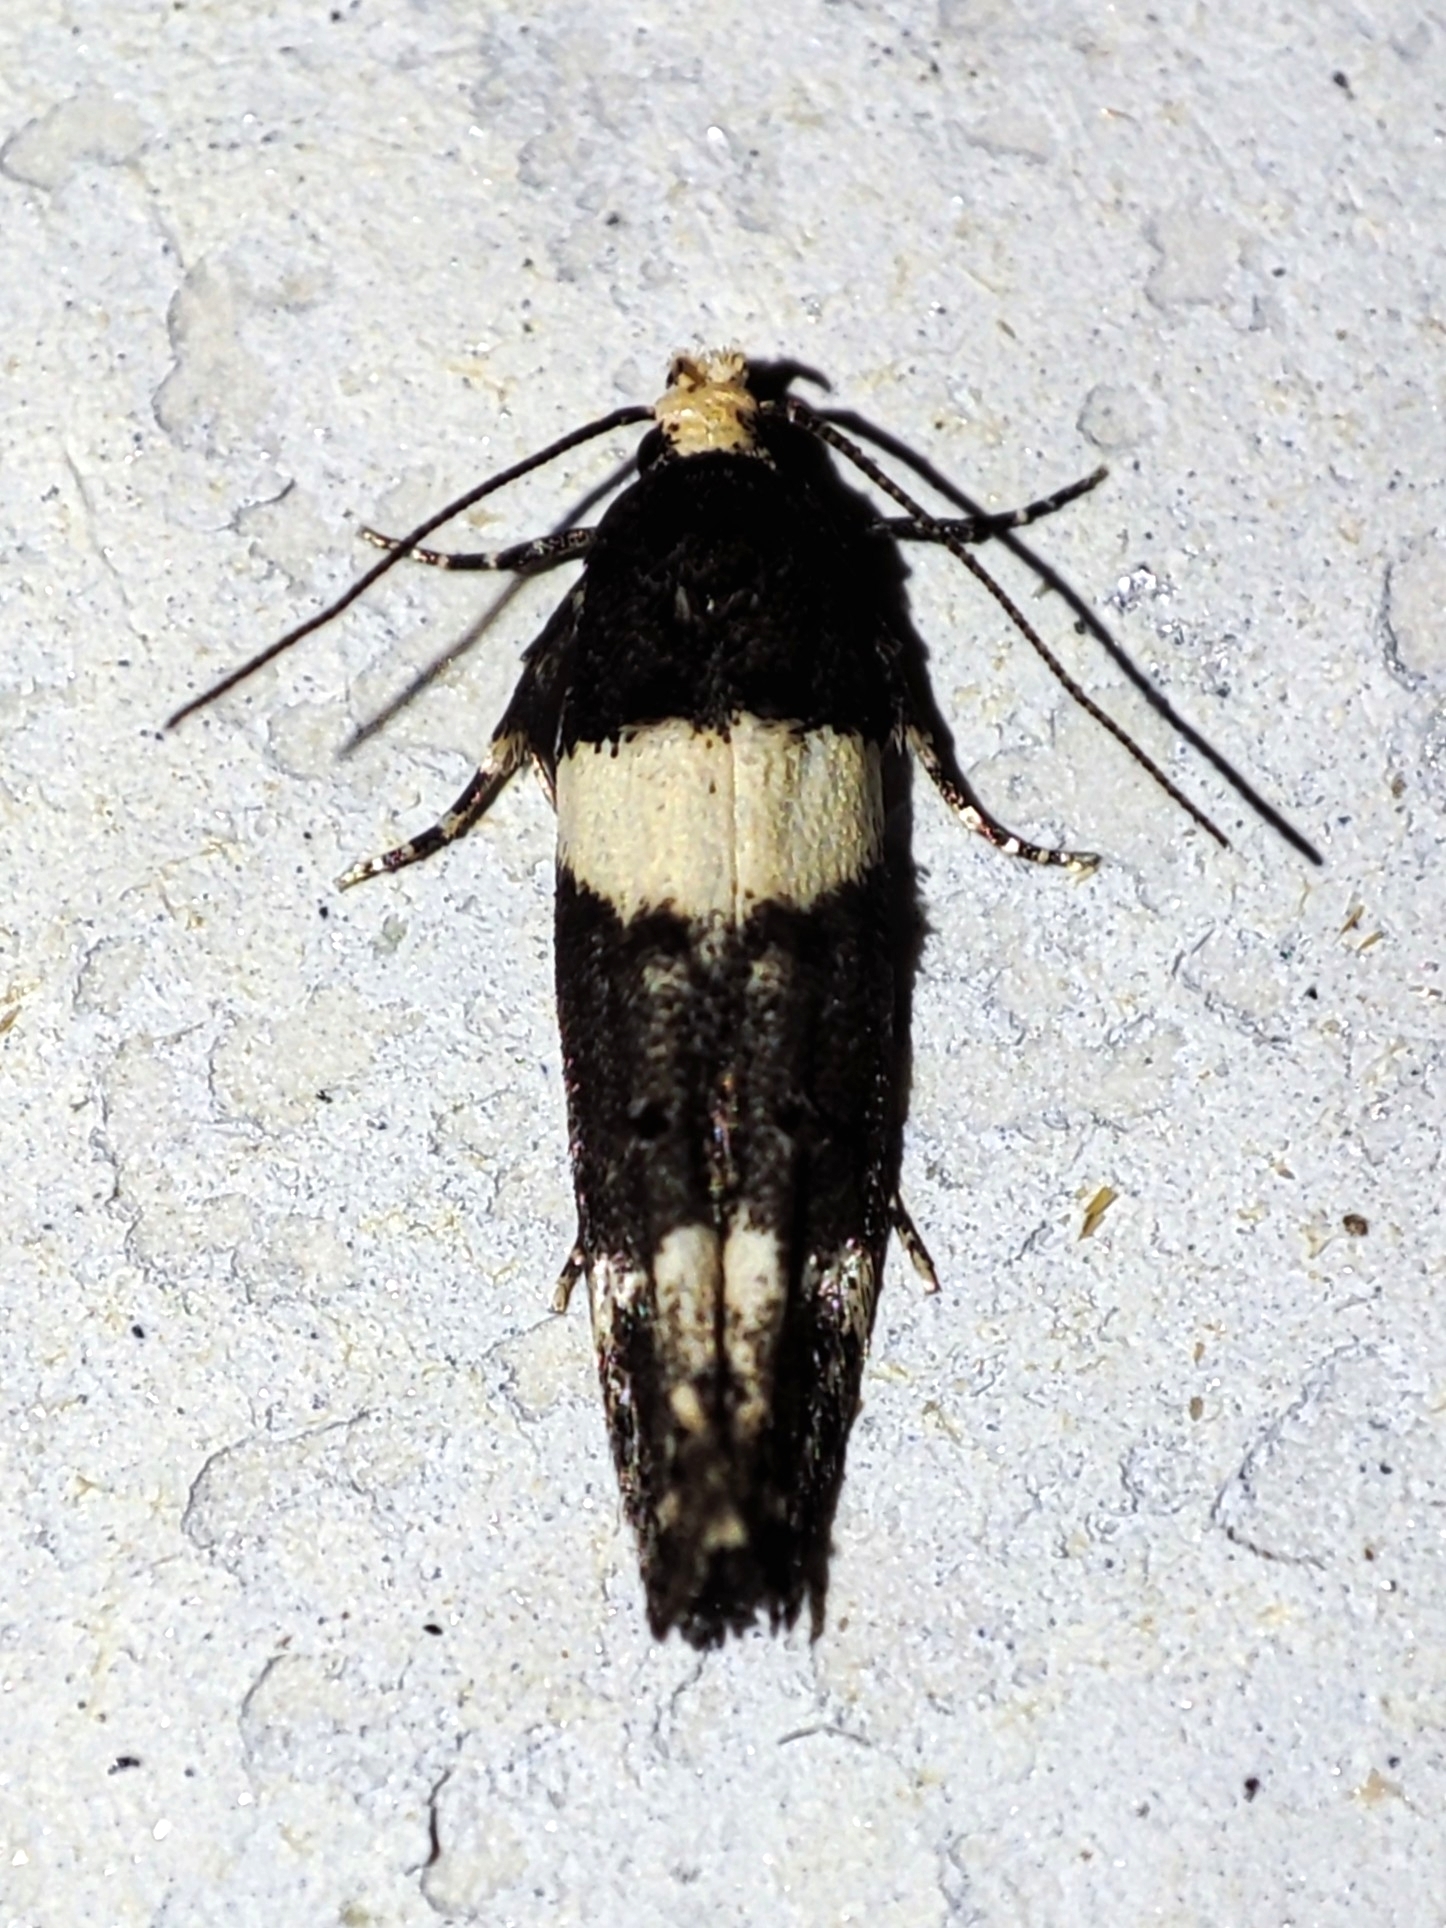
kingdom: Animalia
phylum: Arthropoda
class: Insecta
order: Lepidoptera
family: Gelechiidae
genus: Recurvaria
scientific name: Recurvaria leucatella
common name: White-barred groundling
